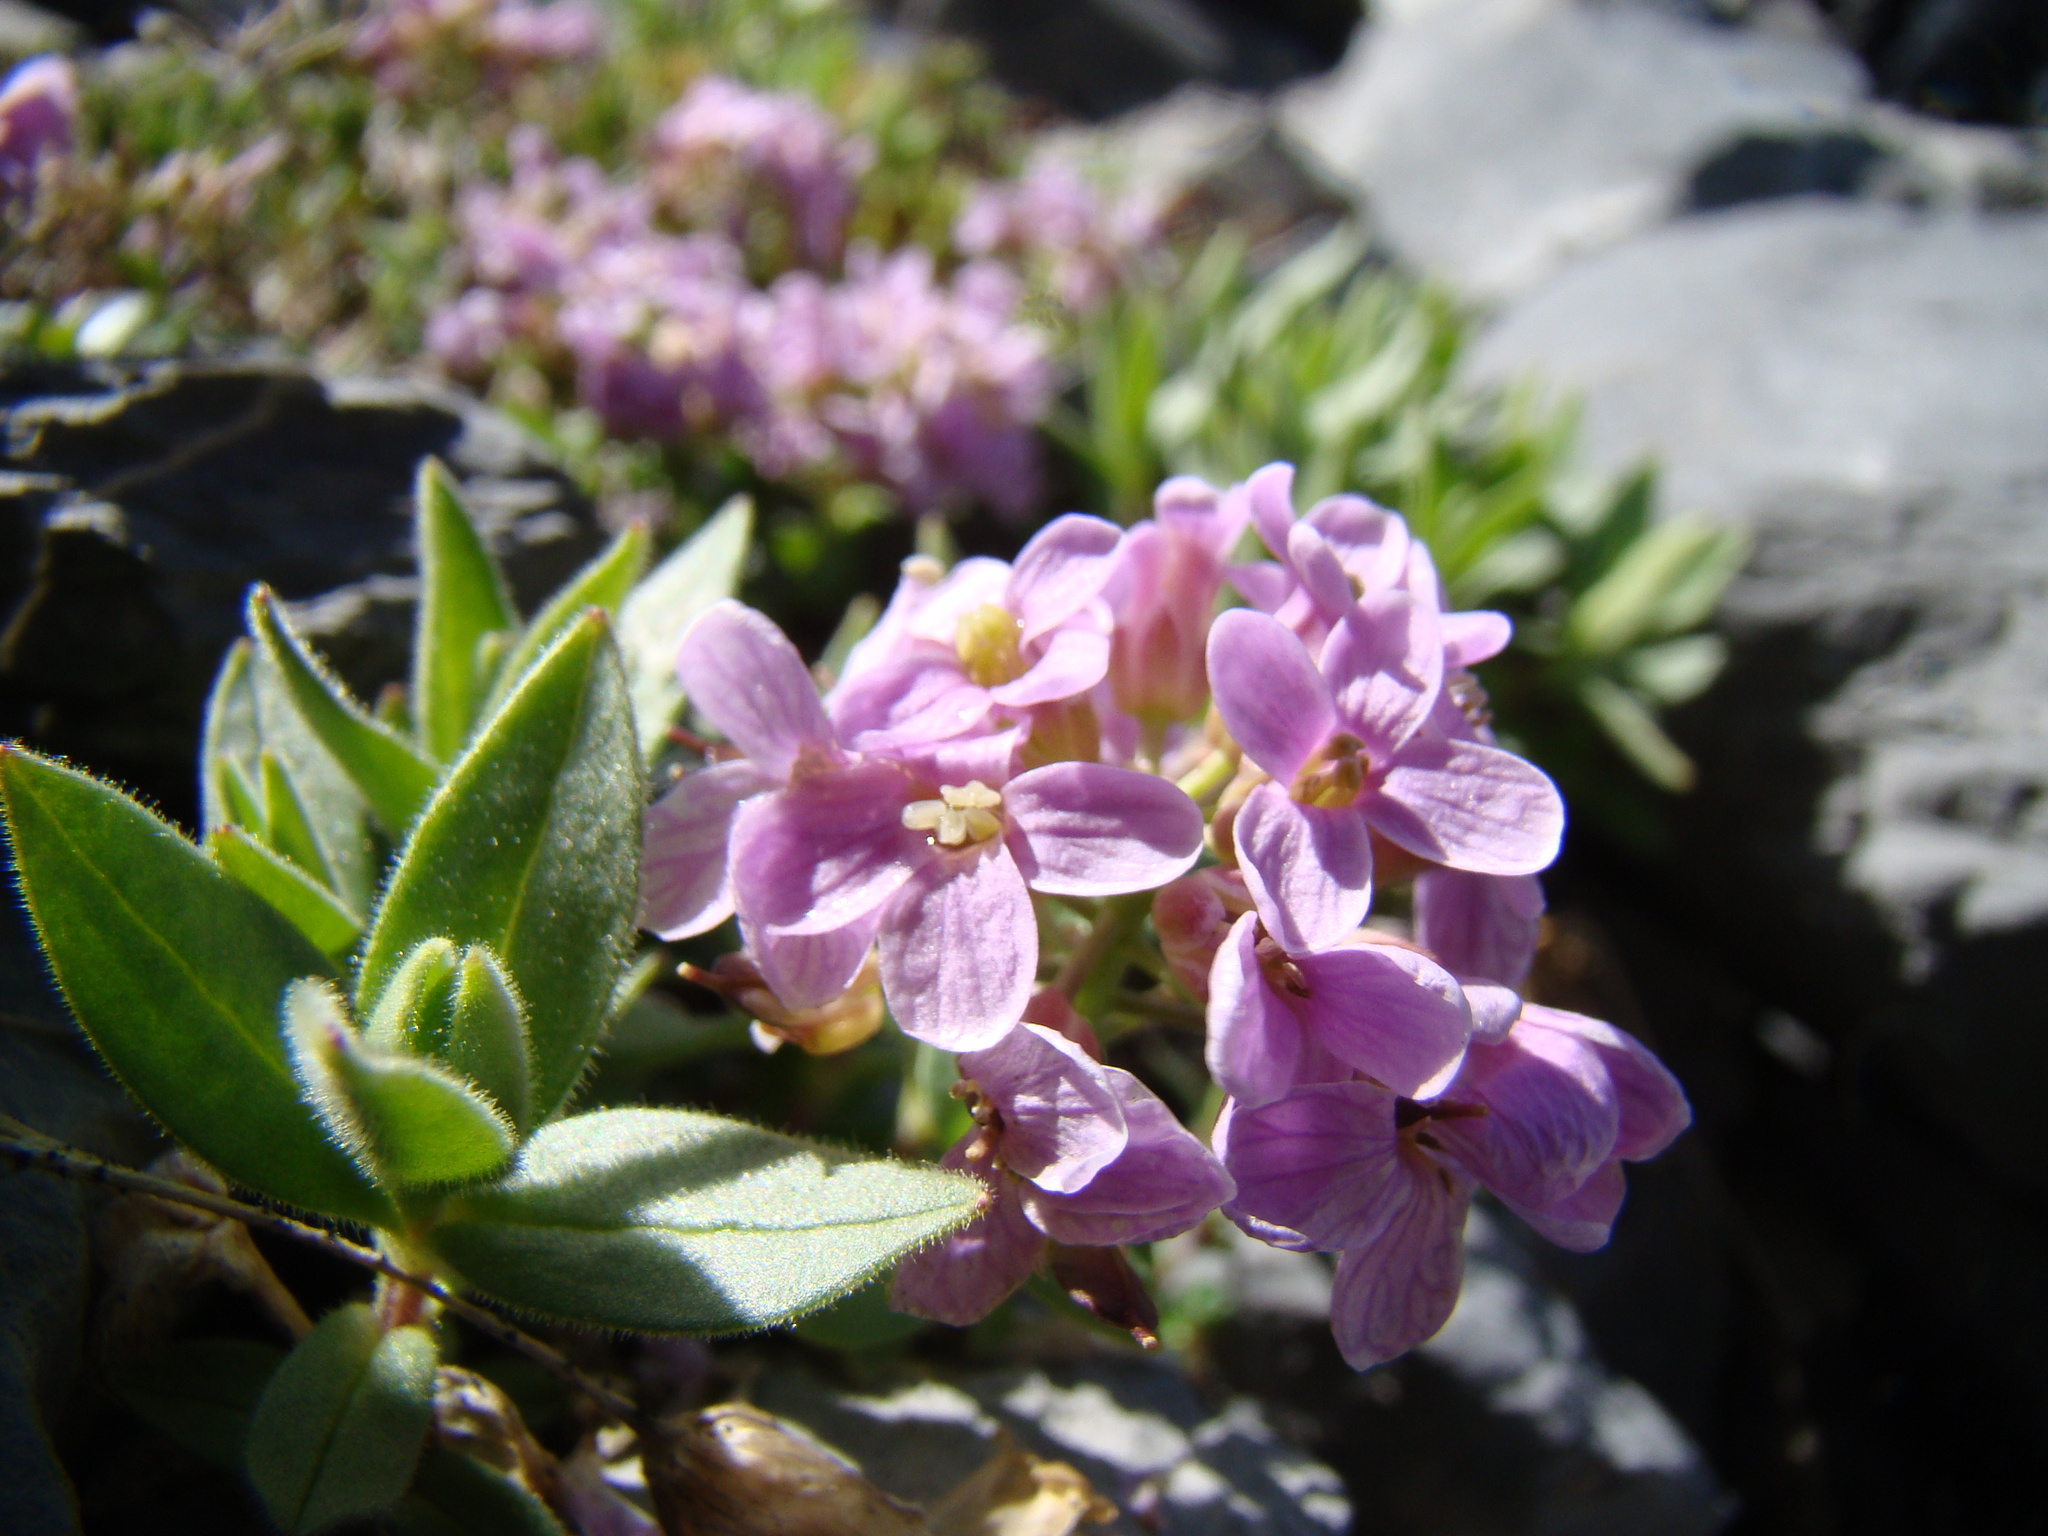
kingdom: Plantae
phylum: Tracheophyta
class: Magnoliopsida
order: Brassicales
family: Brassicaceae
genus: Noccaea
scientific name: Noccaea rotundifolia
